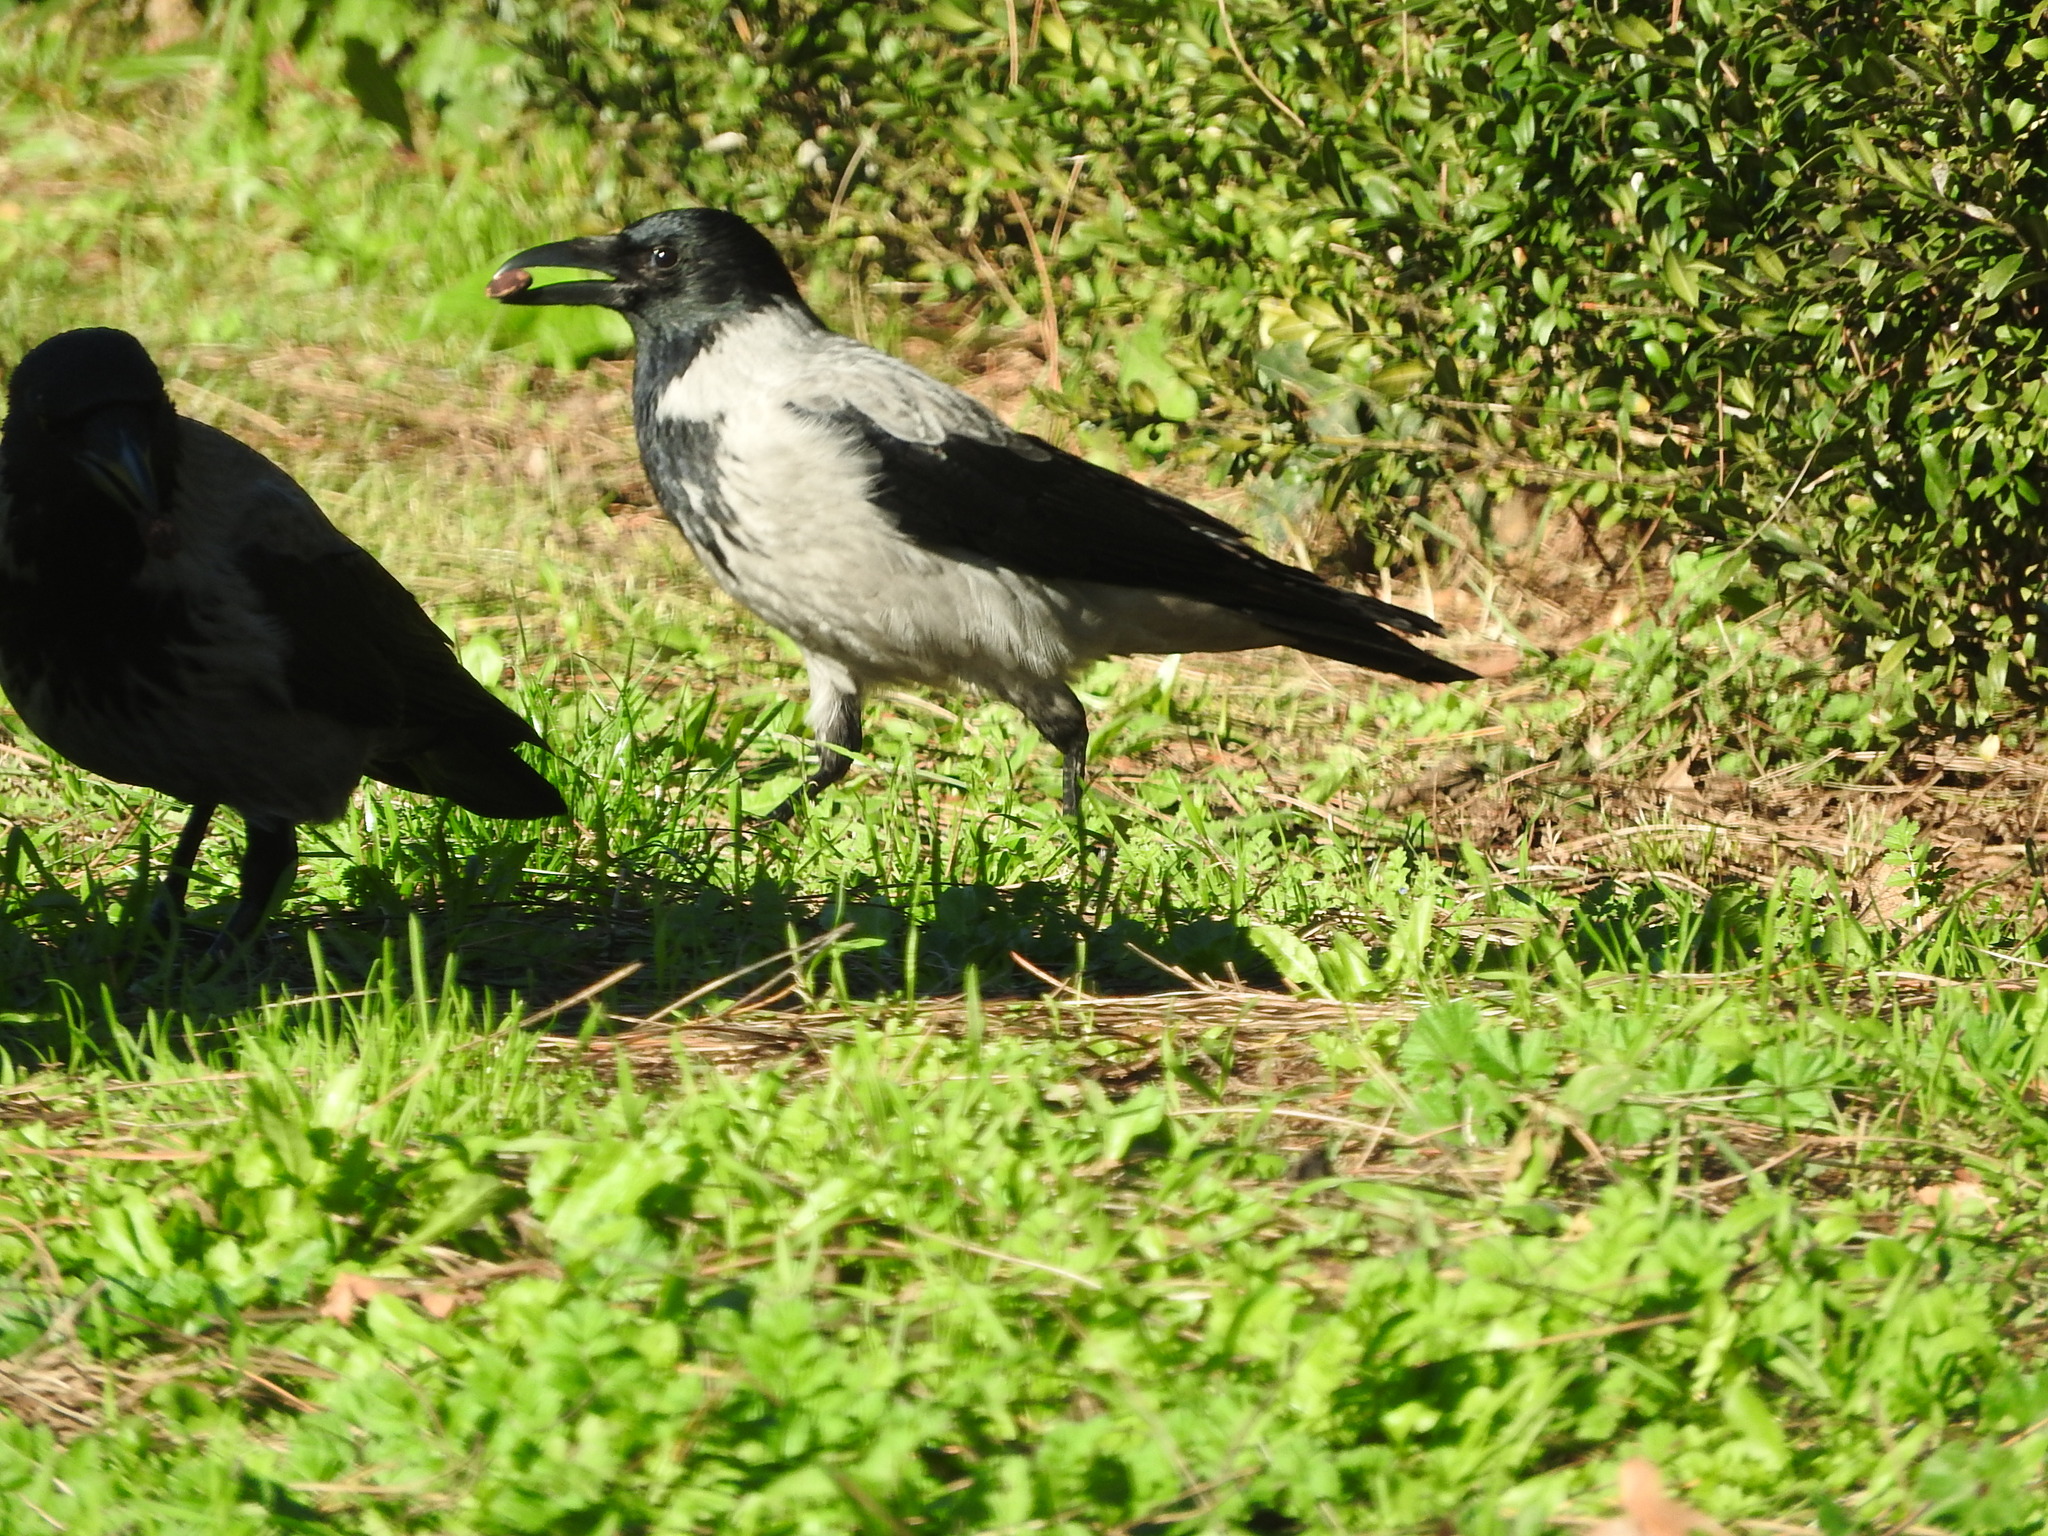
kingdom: Animalia
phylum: Chordata
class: Aves
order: Passeriformes
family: Corvidae
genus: Corvus
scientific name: Corvus cornix
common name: Hooded crow
